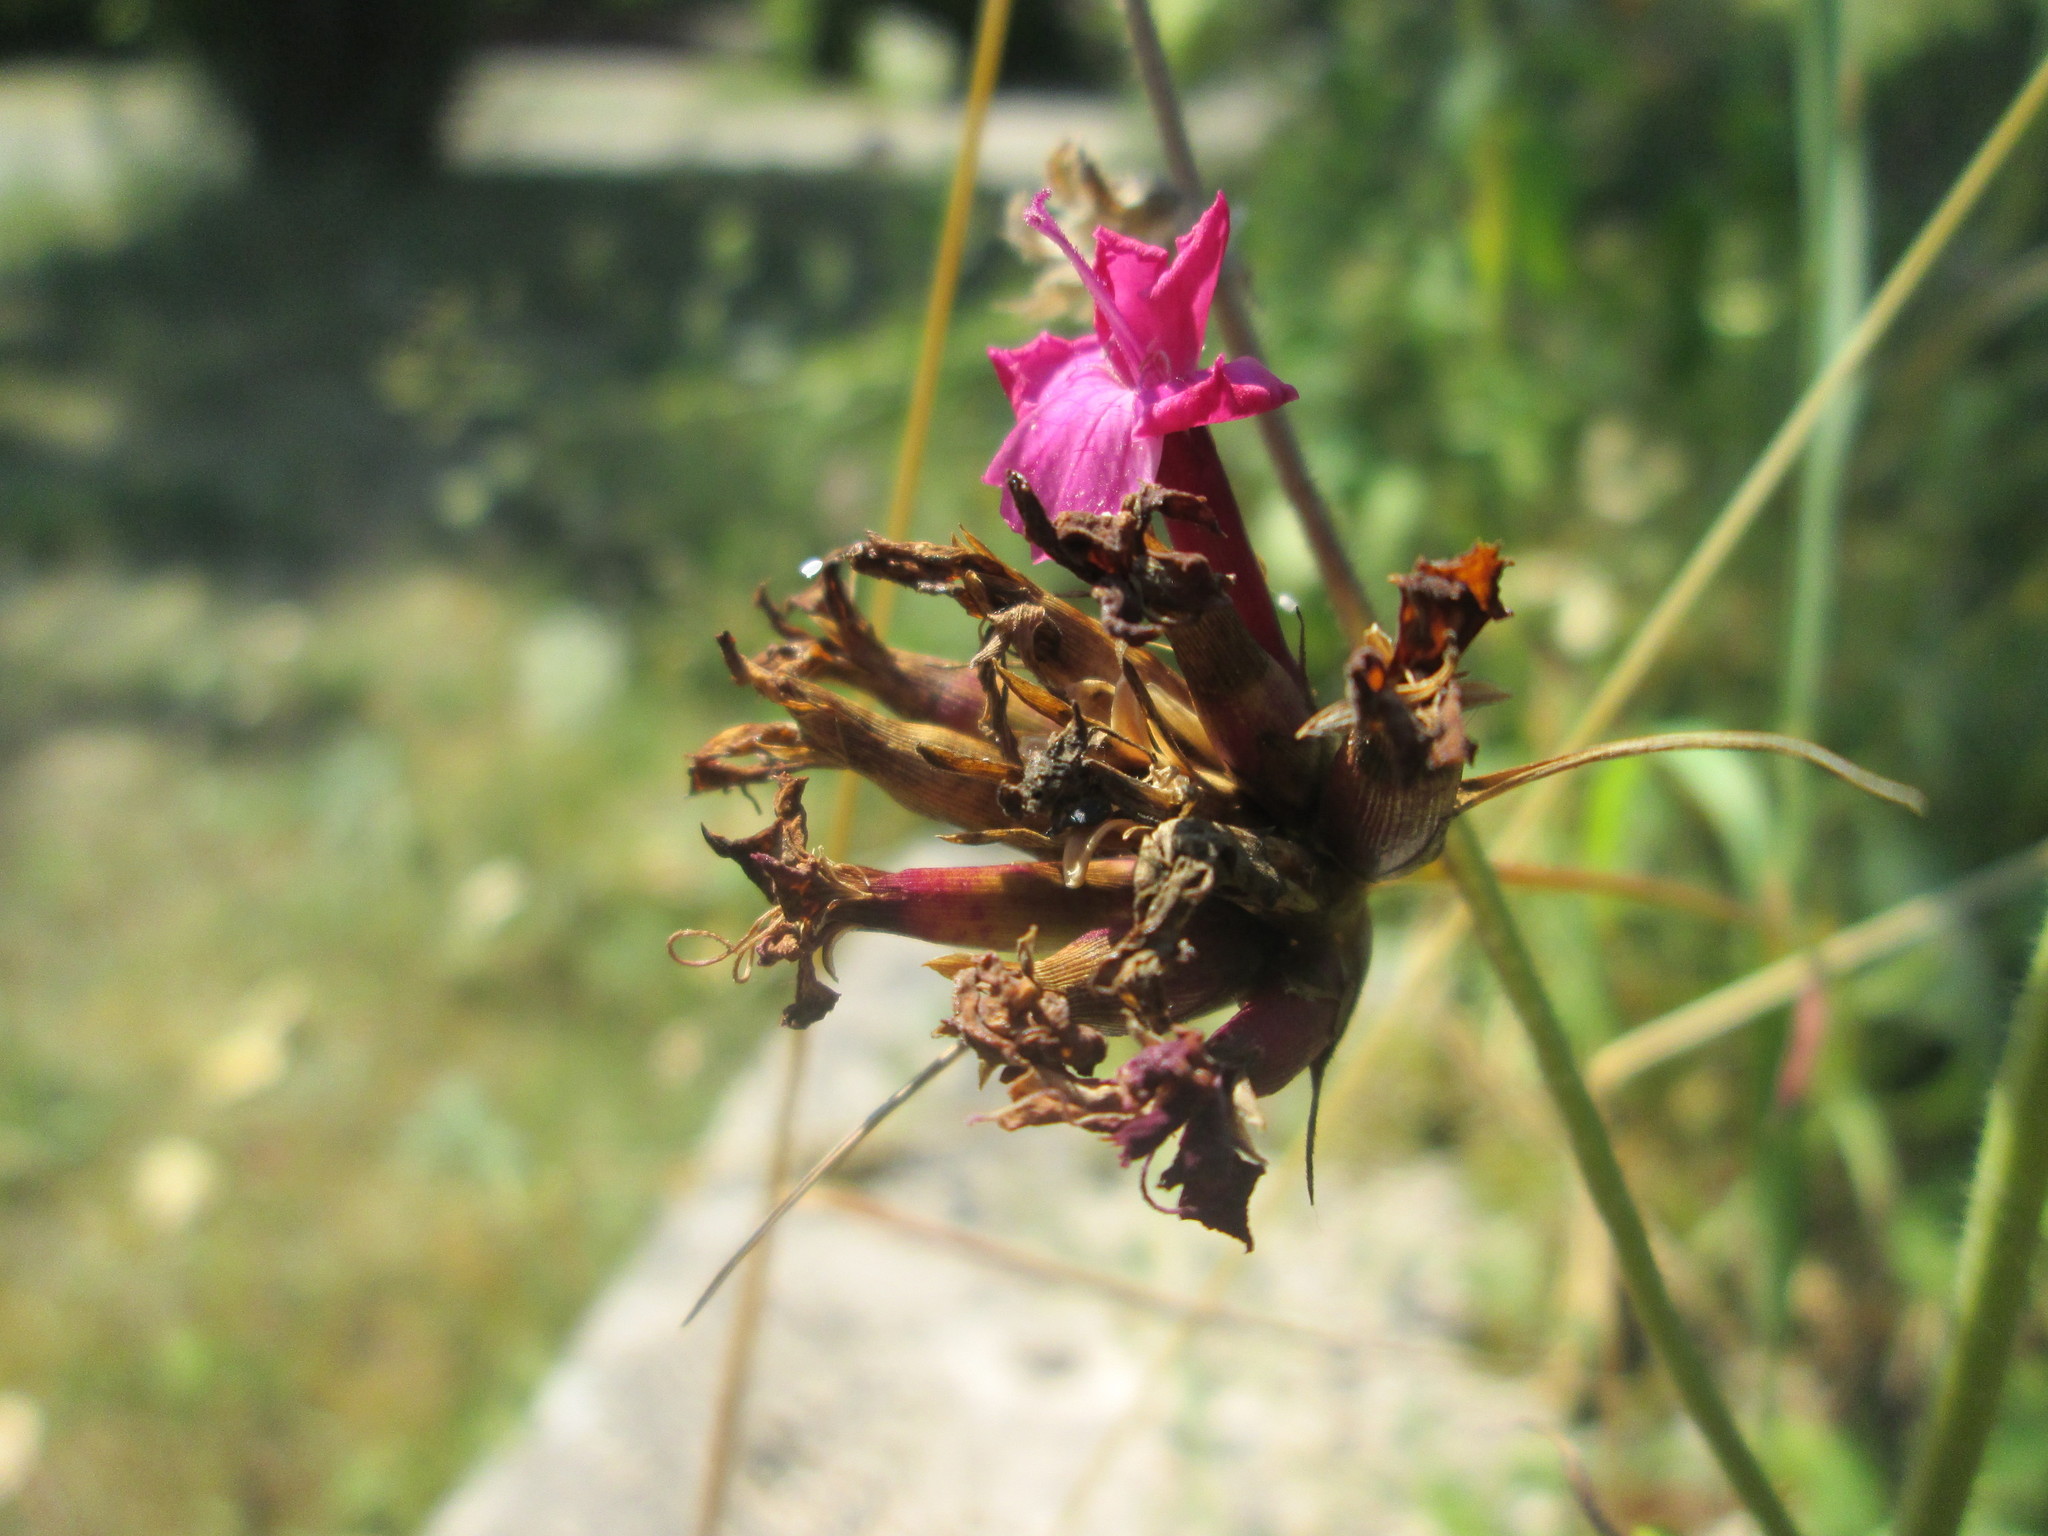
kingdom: Plantae
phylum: Tracheophyta
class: Magnoliopsida
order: Caryophyllales
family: Caryophyllaceae
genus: Dianthus
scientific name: Dianthus carthusianorum
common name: Carthusian pink
